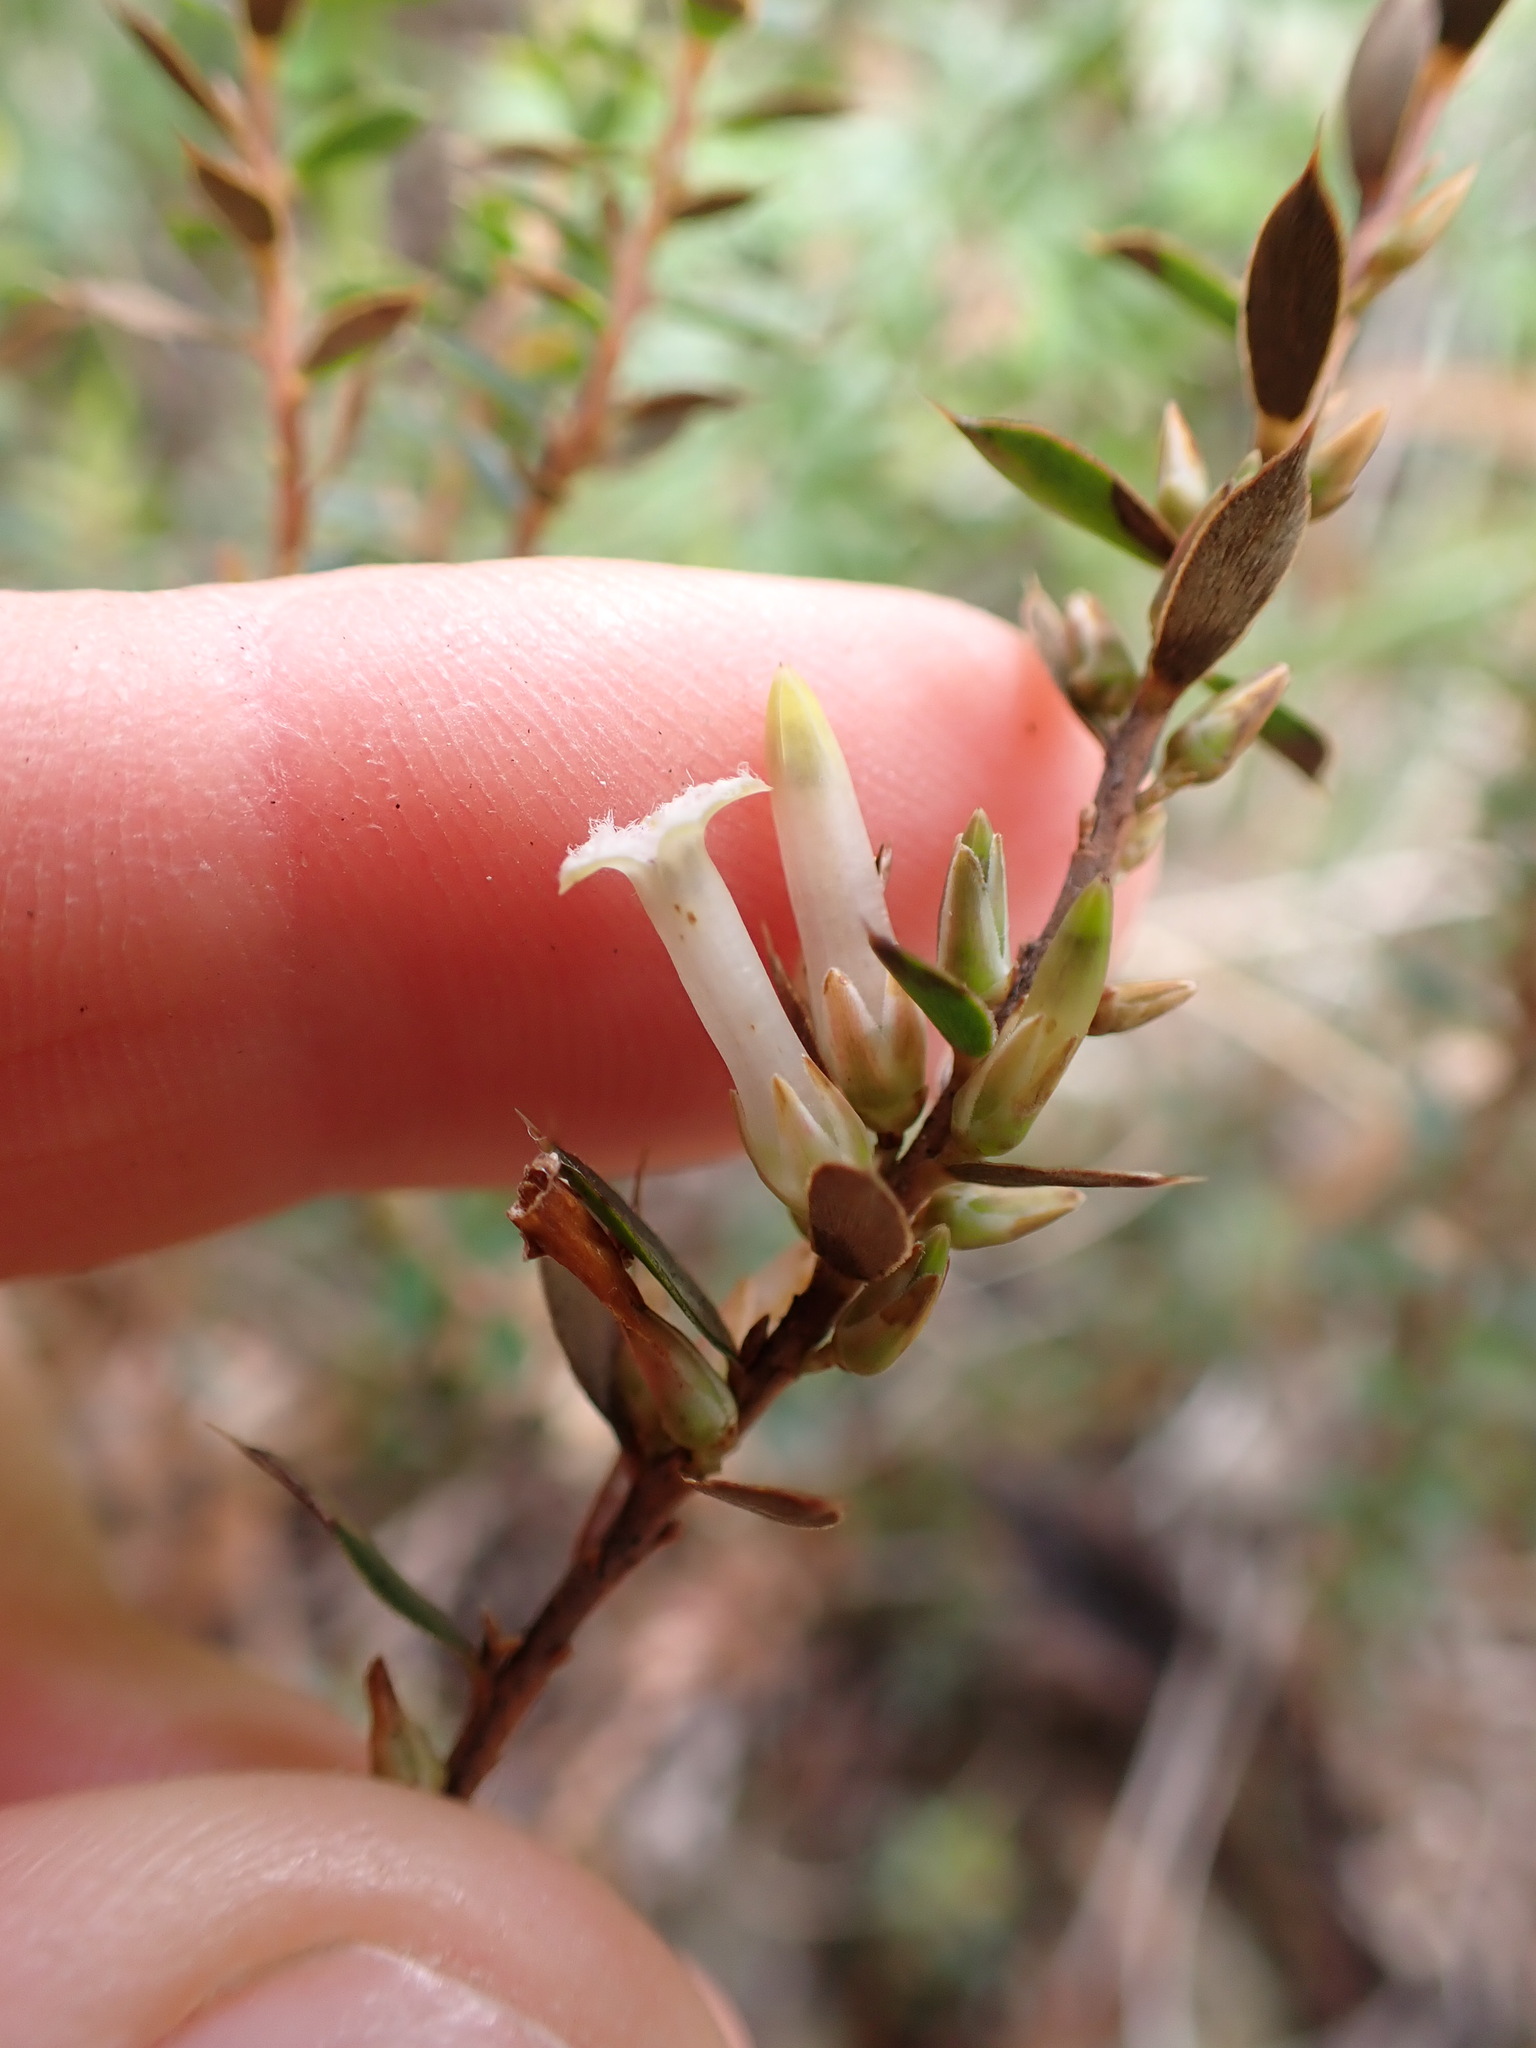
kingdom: Plantae
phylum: Tracheophyta
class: Magnoliopsida
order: Ericales
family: Ericaceae
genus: Styphelia
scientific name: Styphelia nesophila
